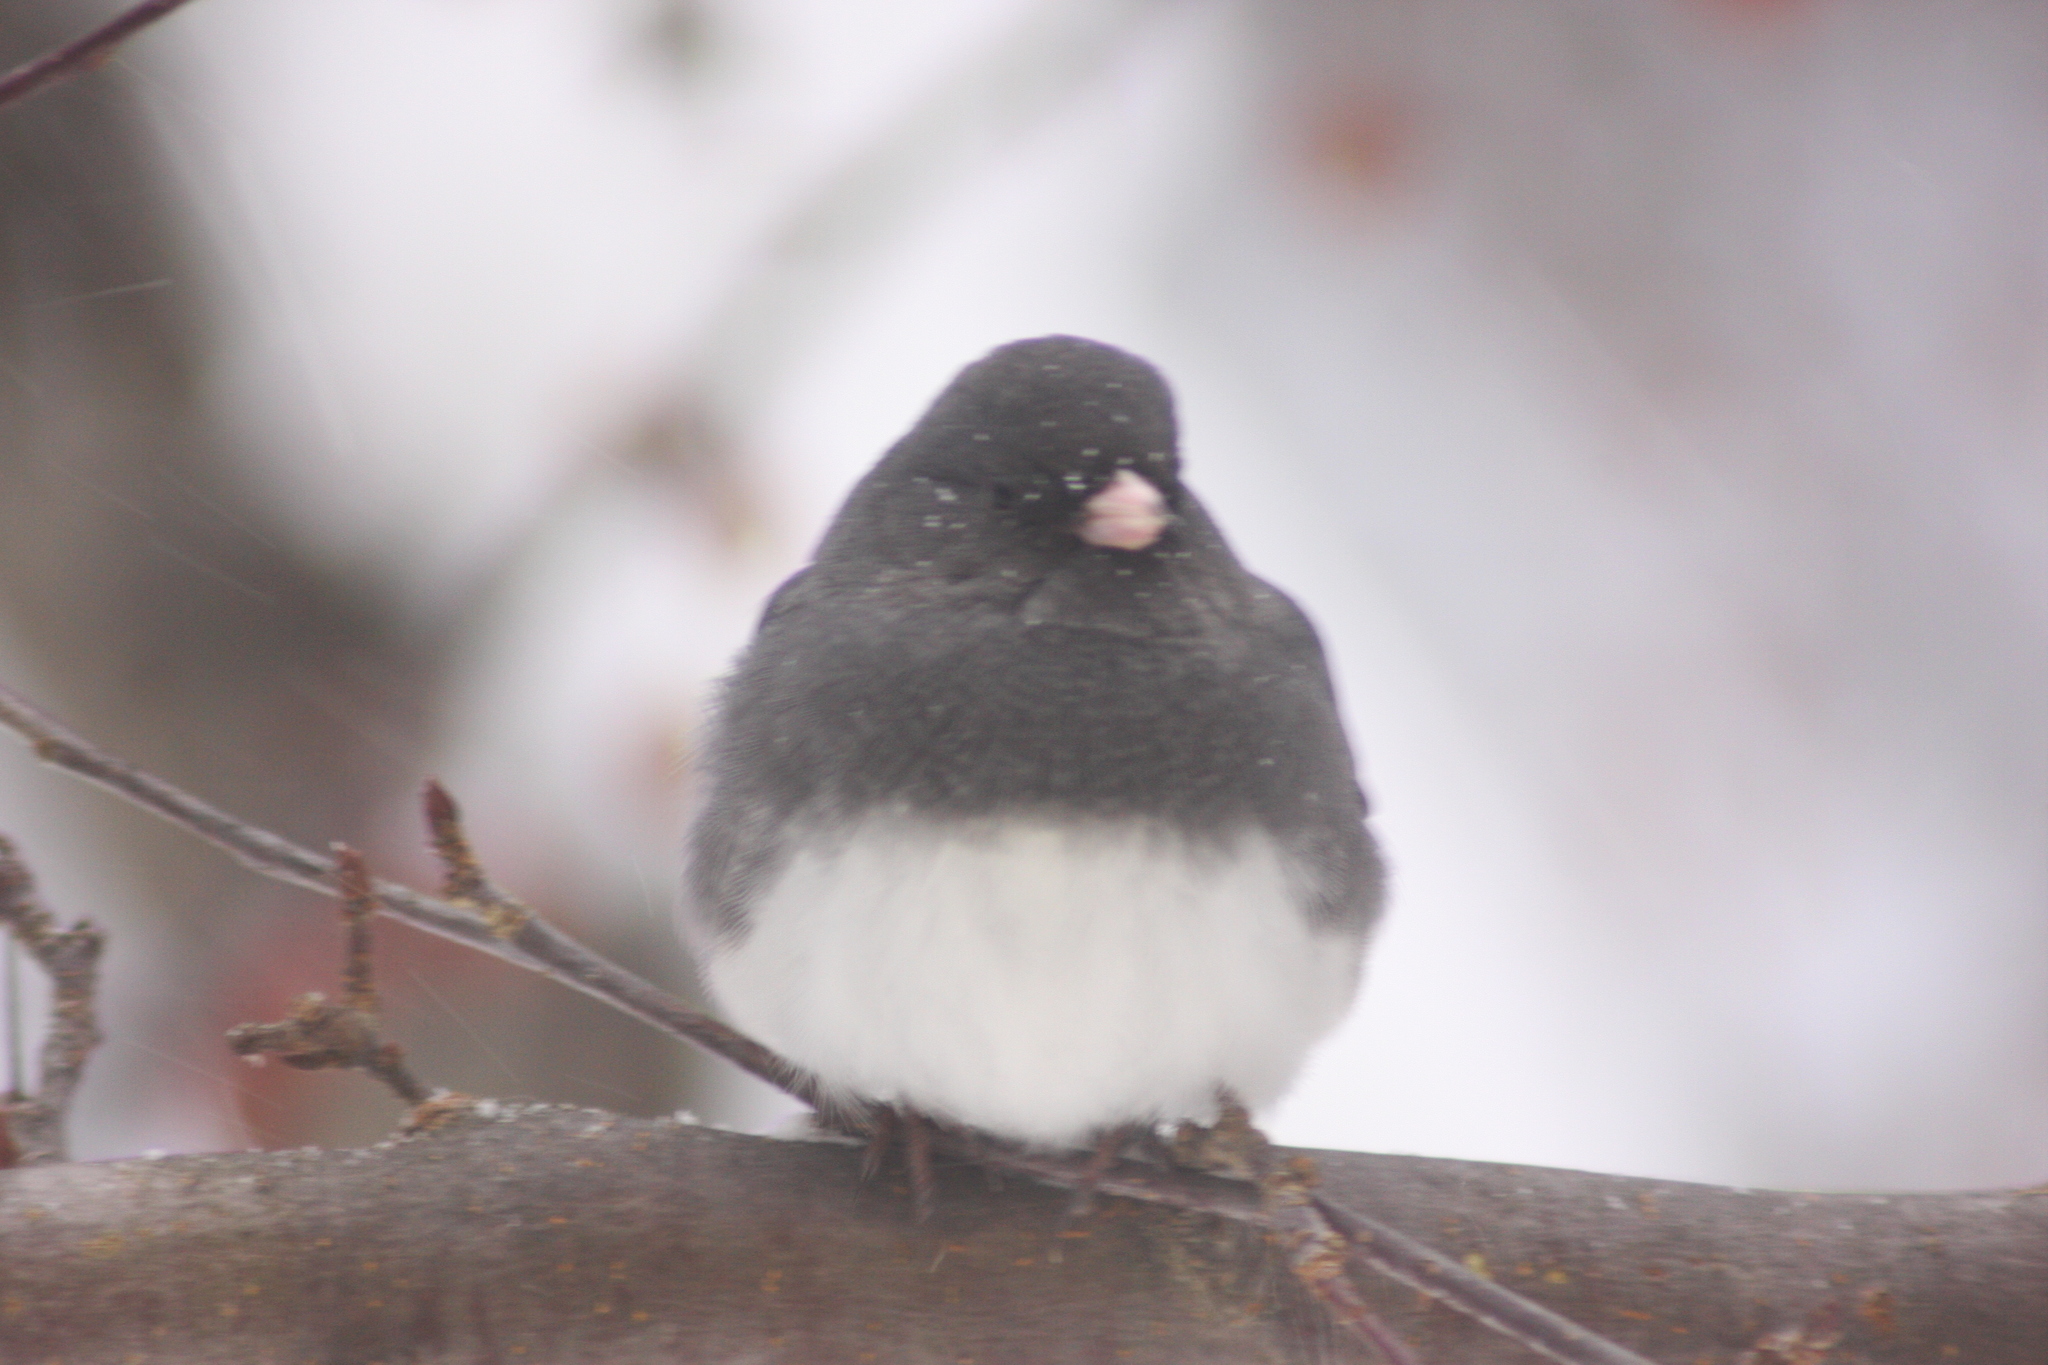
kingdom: Animalia
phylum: Chordata
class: Aves
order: Passeriformes
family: Passerellidae
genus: Junco
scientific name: Junco hyemalis
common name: Dark-eyed junco
